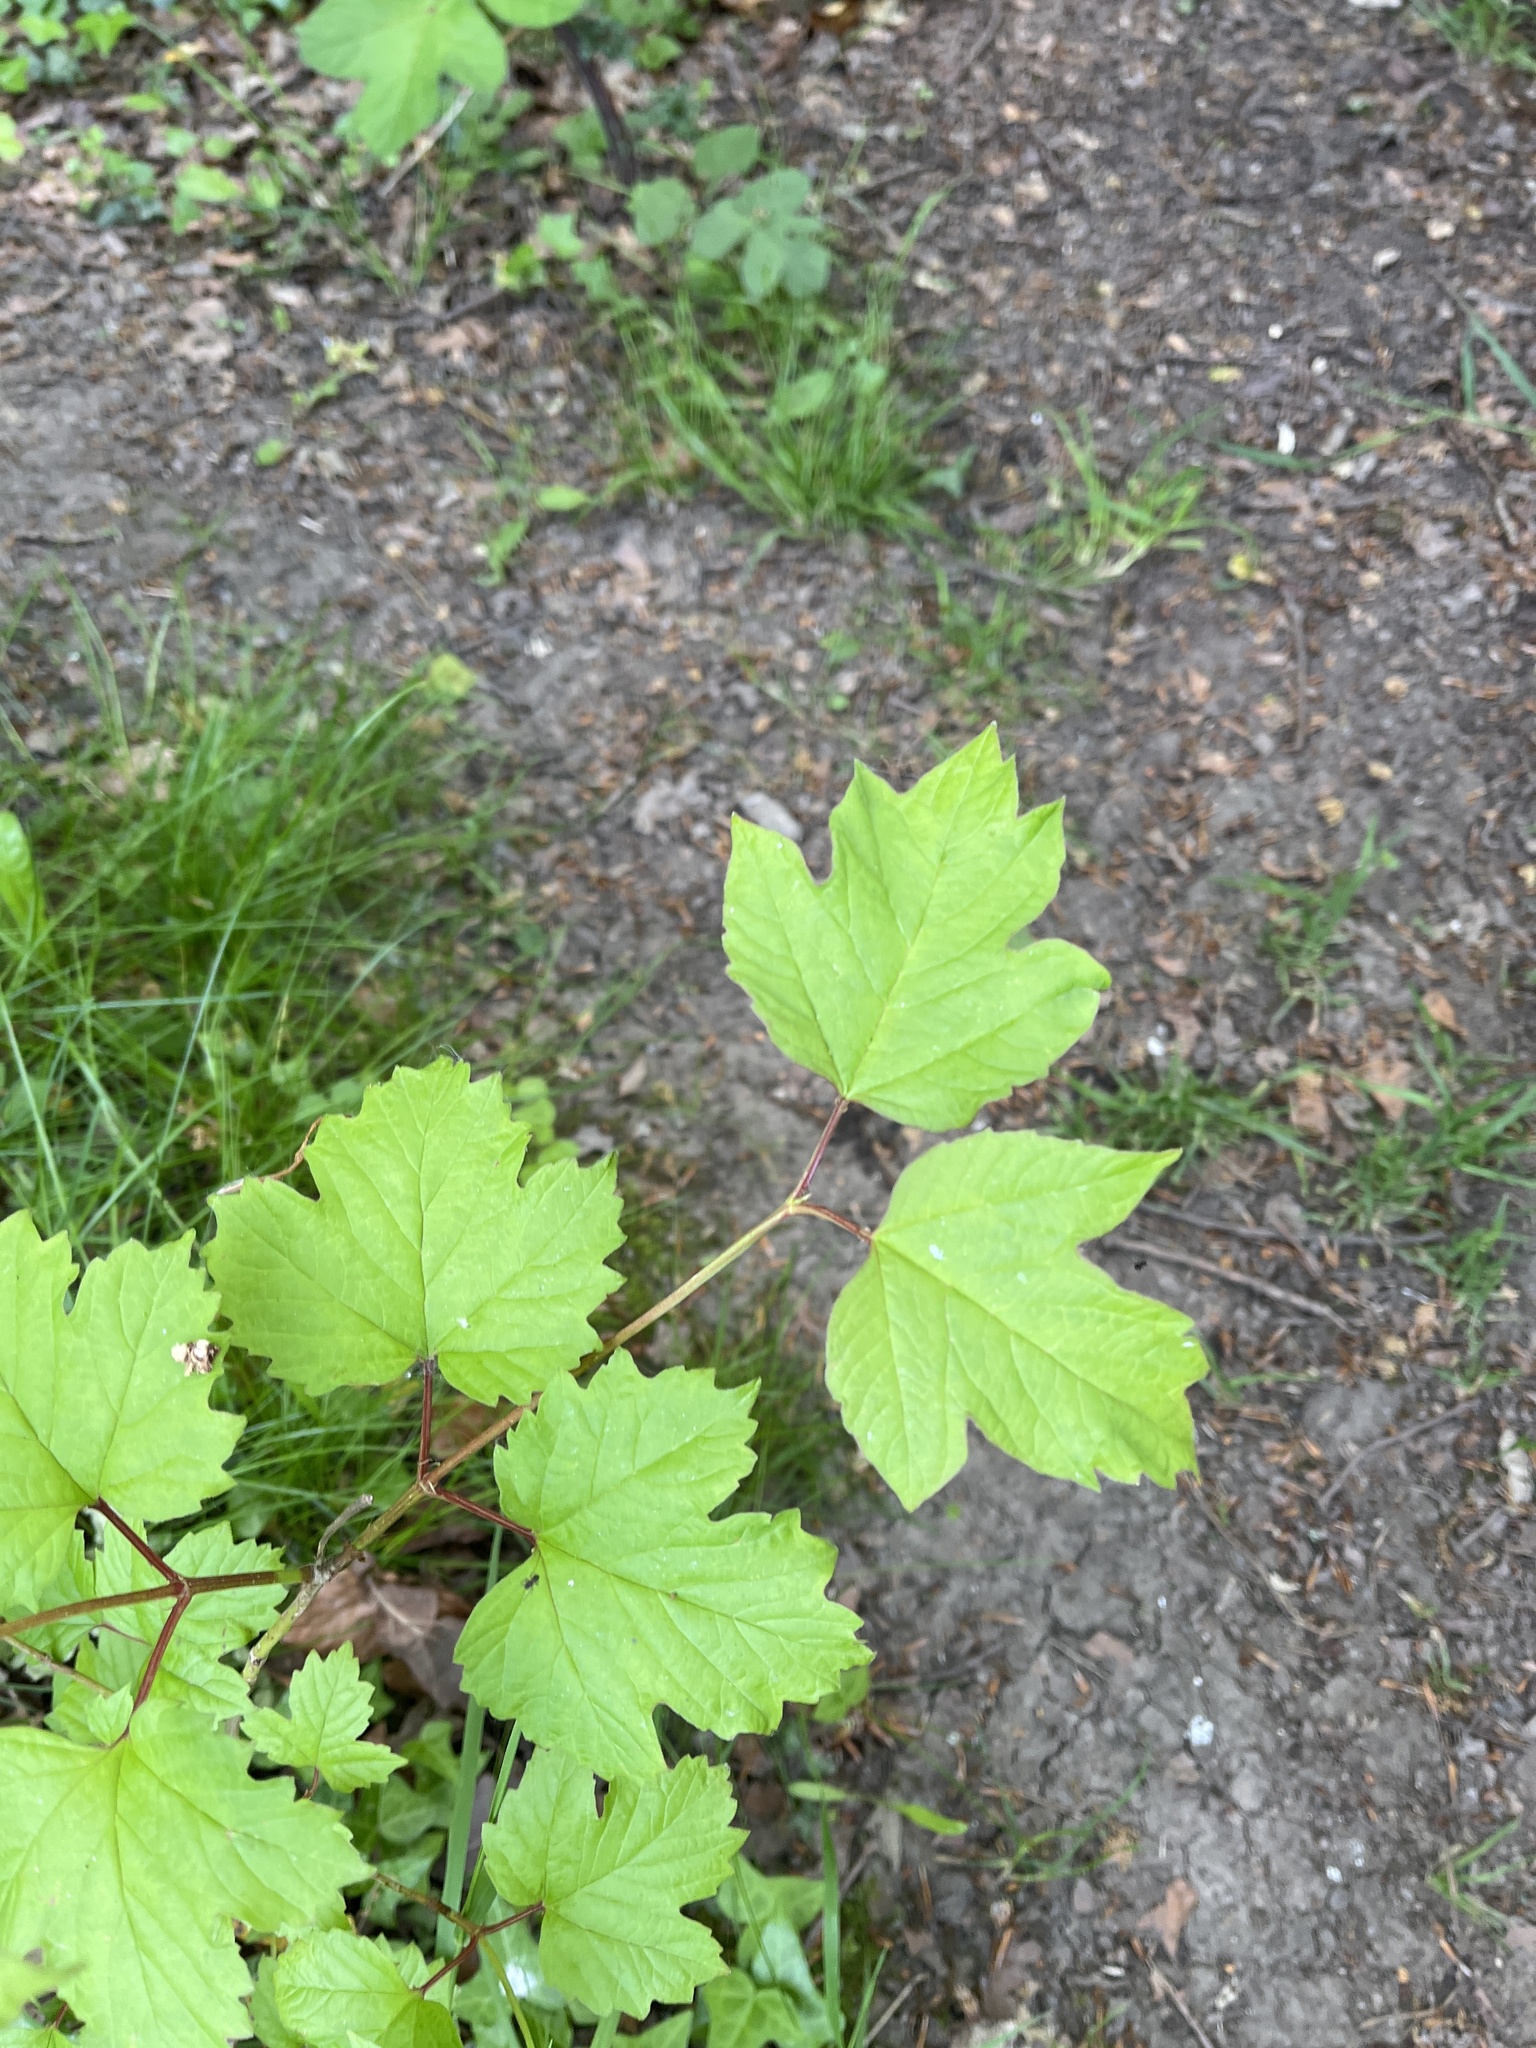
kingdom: Plantae
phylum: Tracheophyta
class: Magnoliopsida
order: Dipsacales
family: Viburnaceae
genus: Viburnum
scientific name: Viburnum opulus
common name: Guelder-rose
